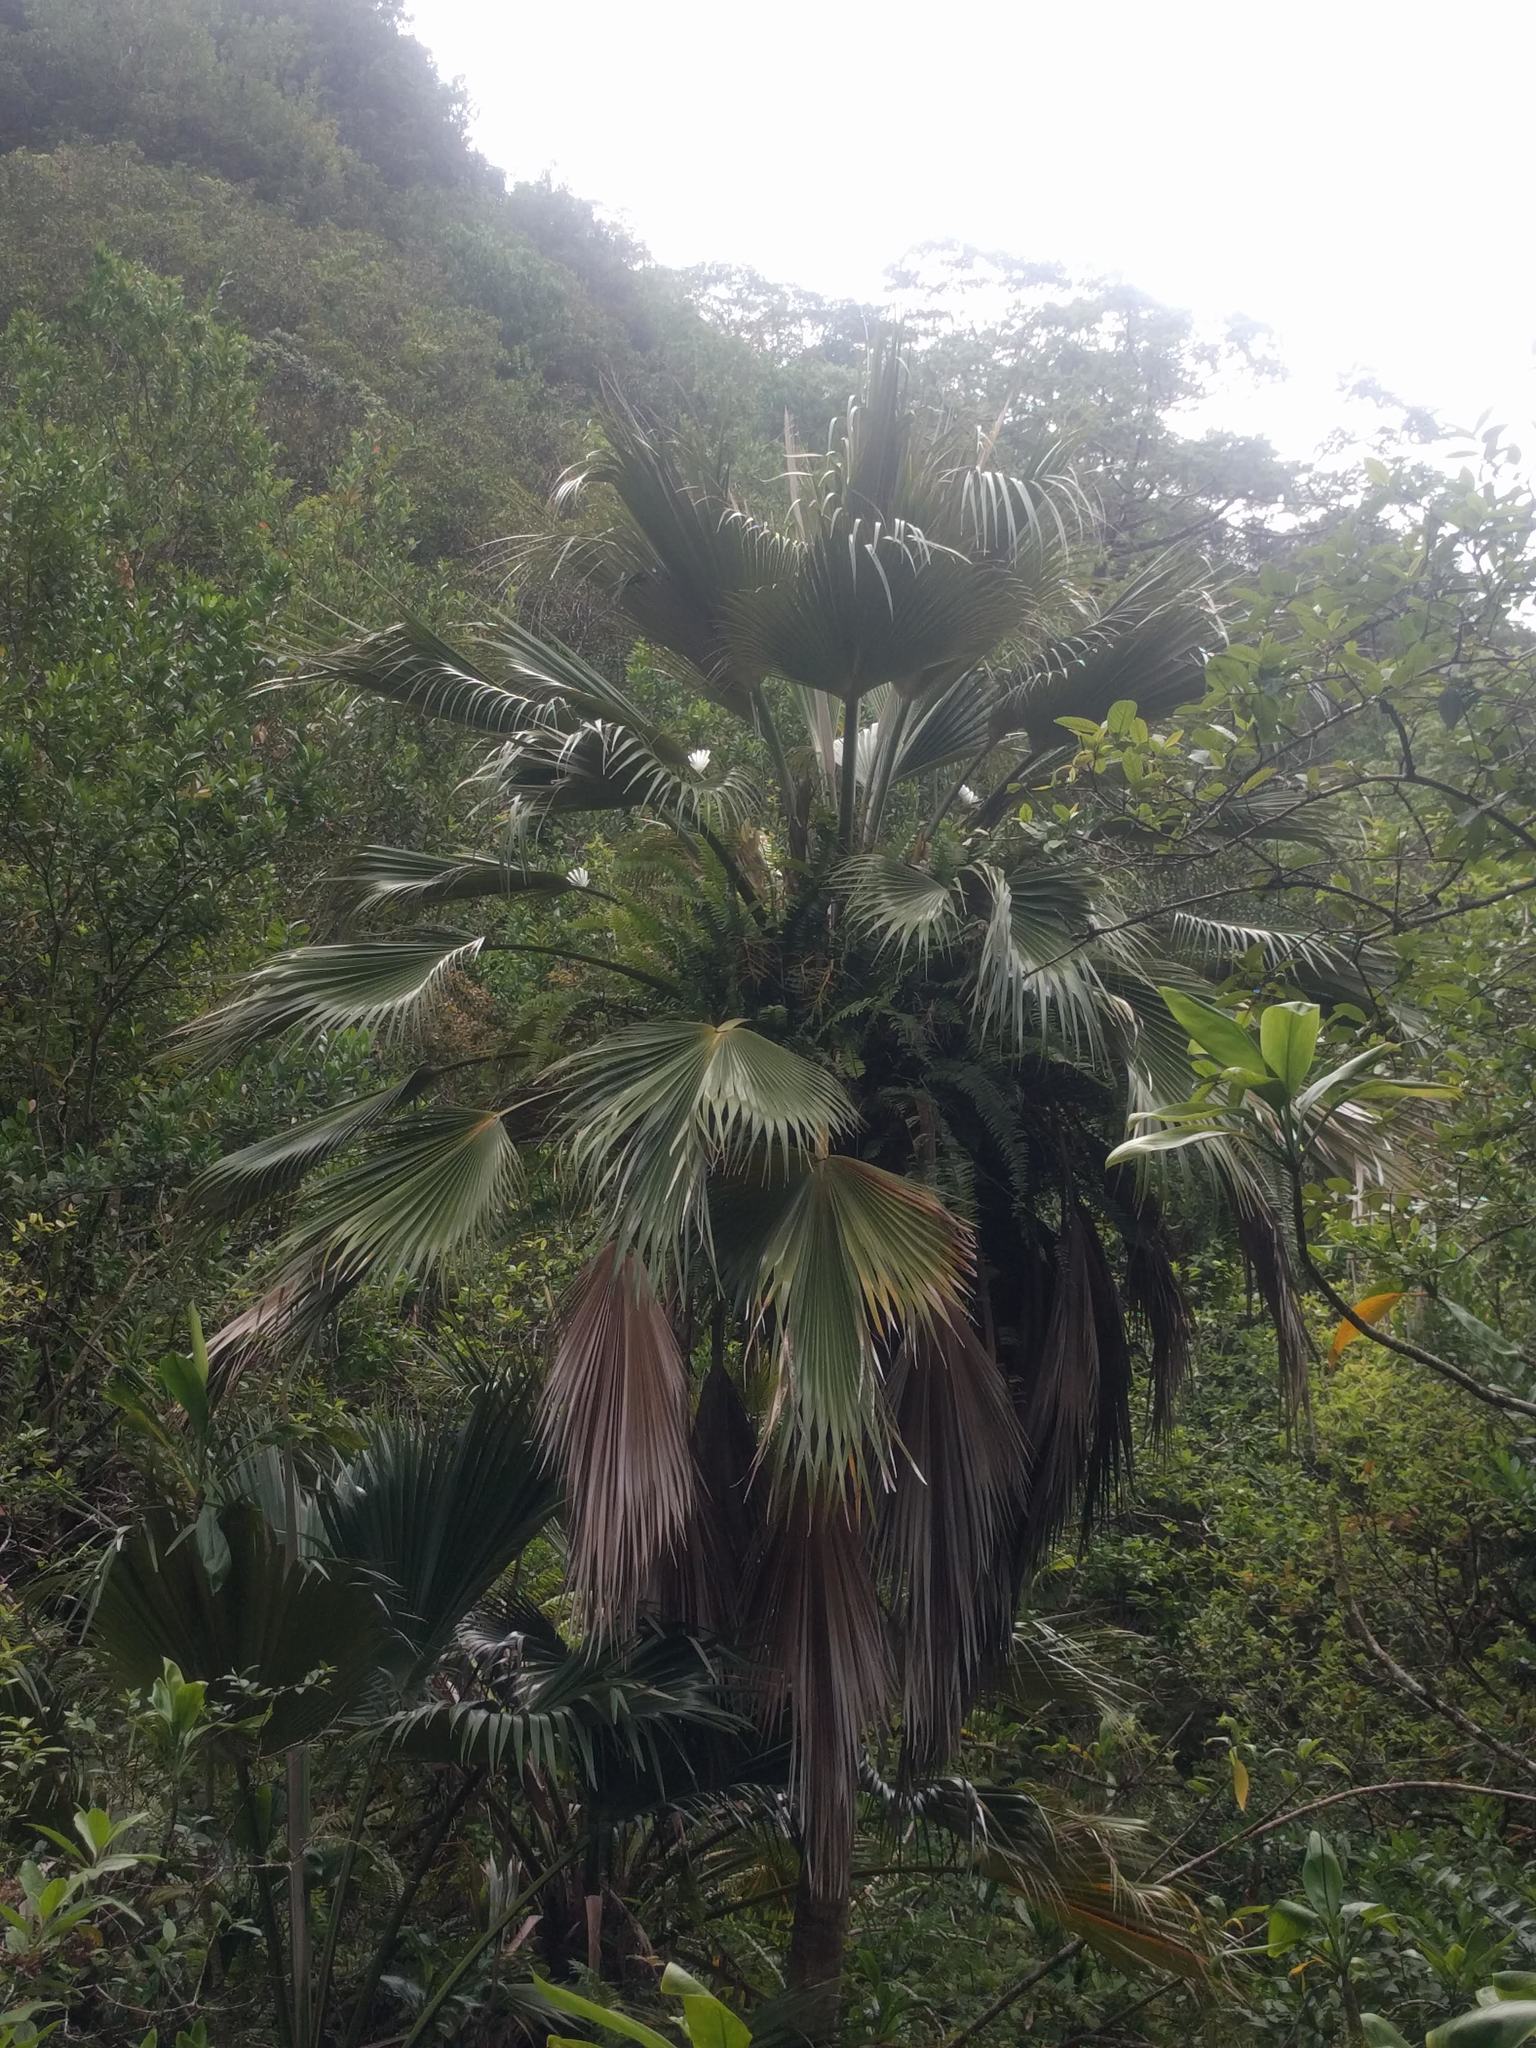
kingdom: Plantae
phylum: Tracheophyta
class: Liliopsida
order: Arecales
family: Arecaceae
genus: Pritchardia
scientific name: Pritchardia martii
